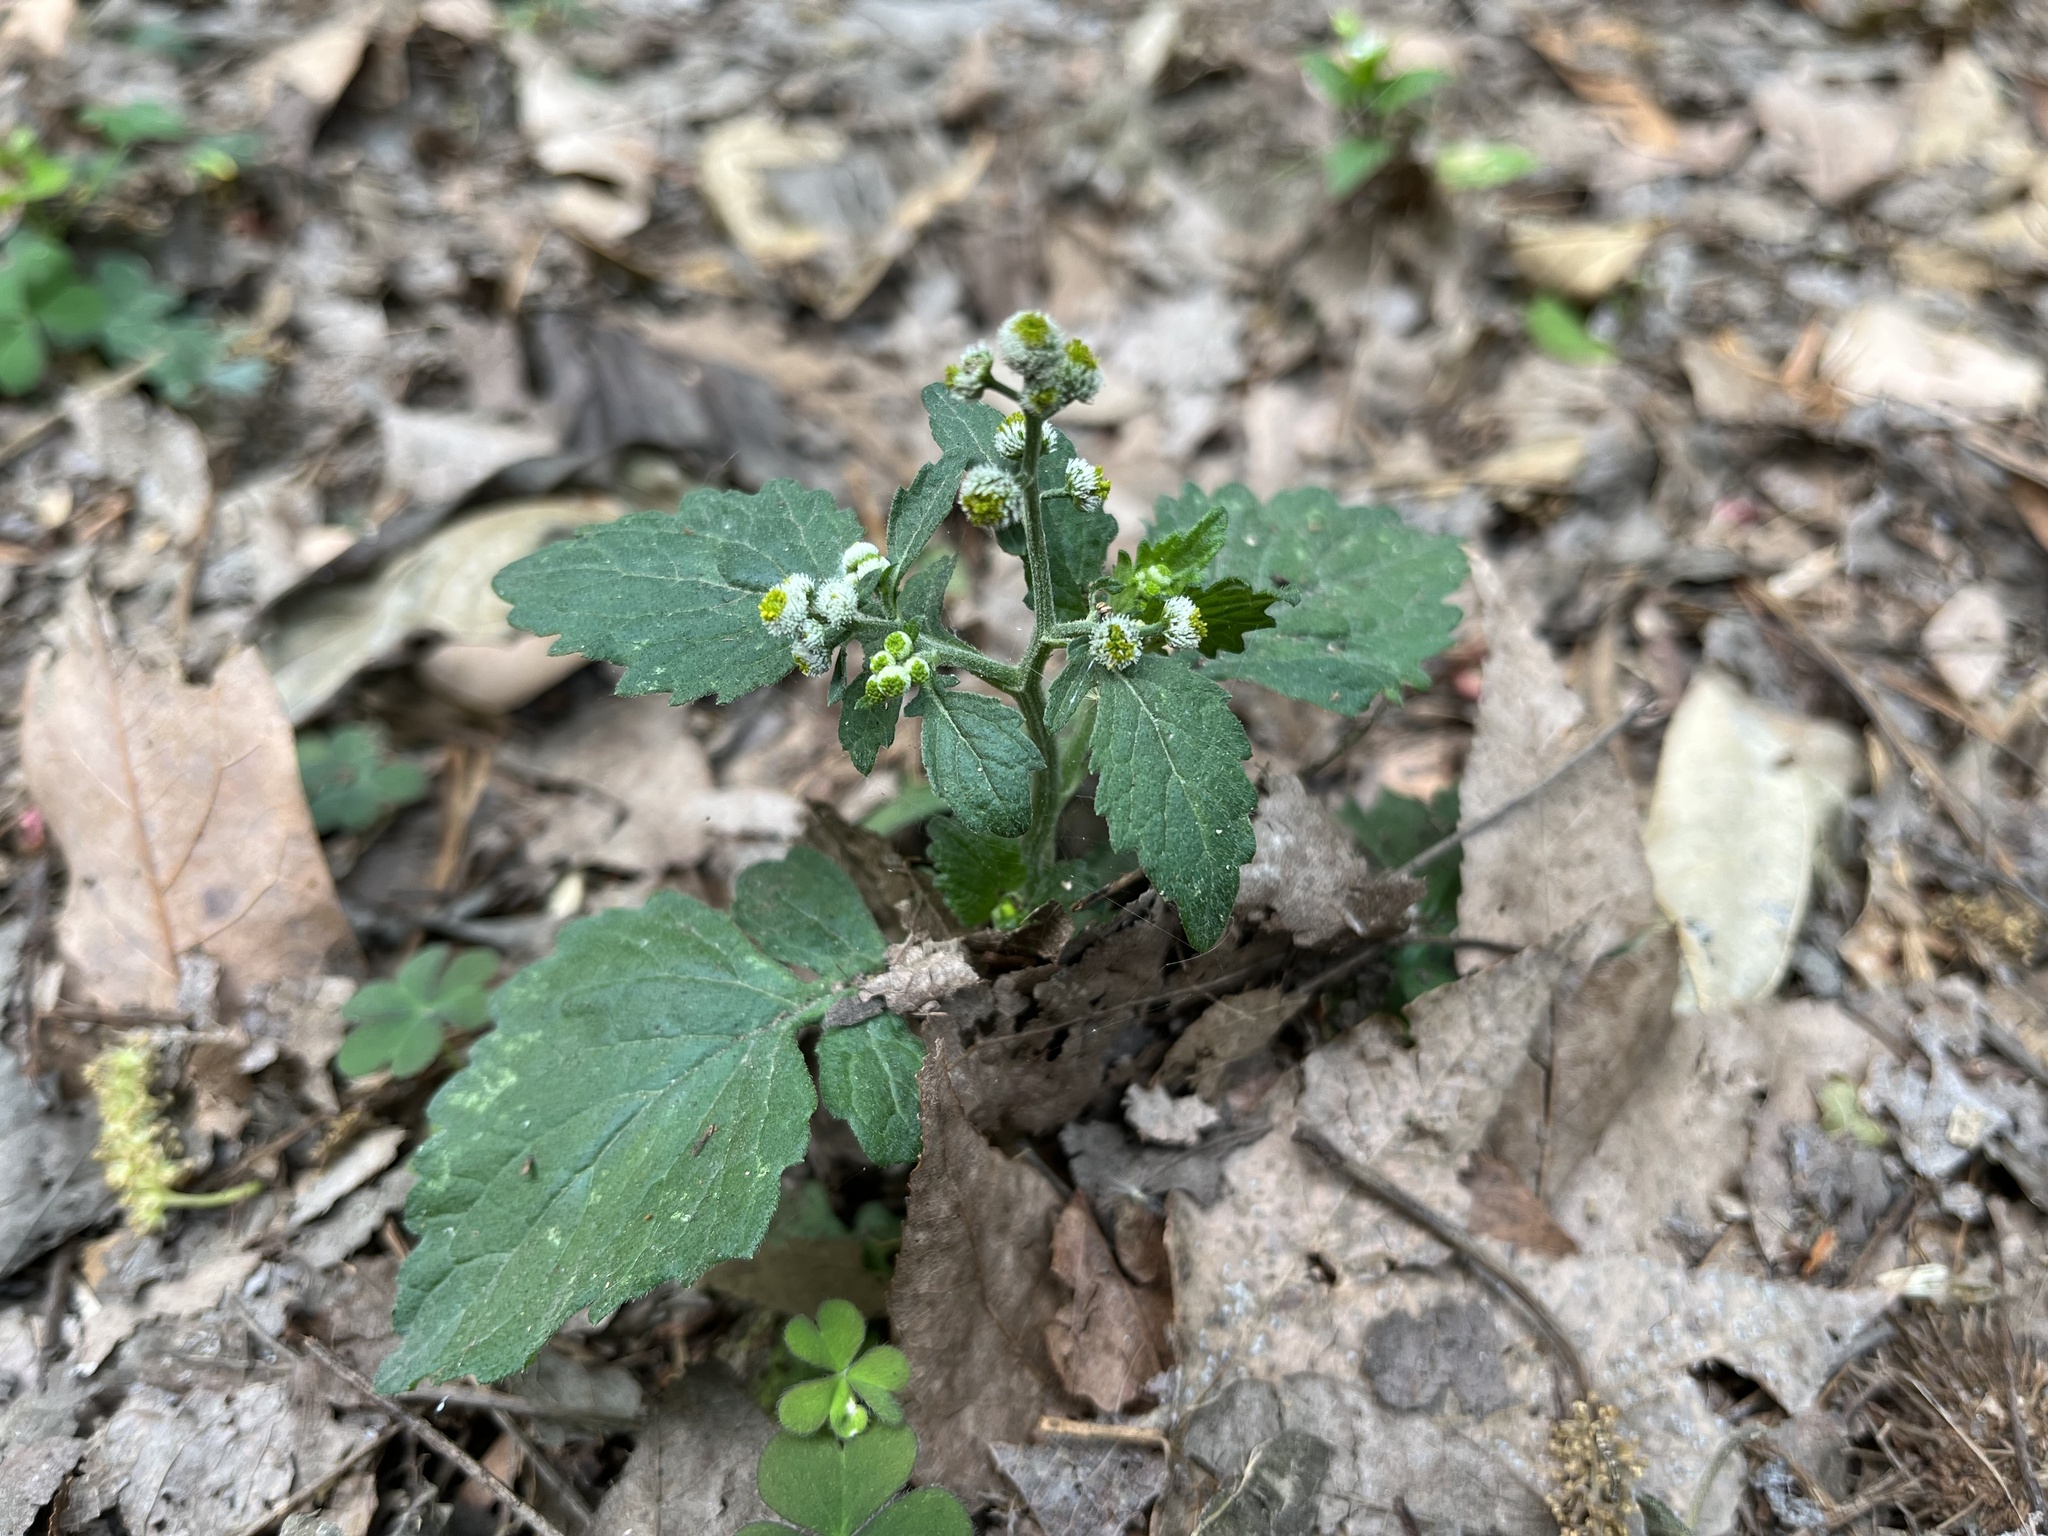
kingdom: Plantae
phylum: Tracheophyta
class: Magnoliopsida
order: Asterales
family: Asteraceae
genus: Dichrocephala
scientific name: Dichrocephala integrifolia
